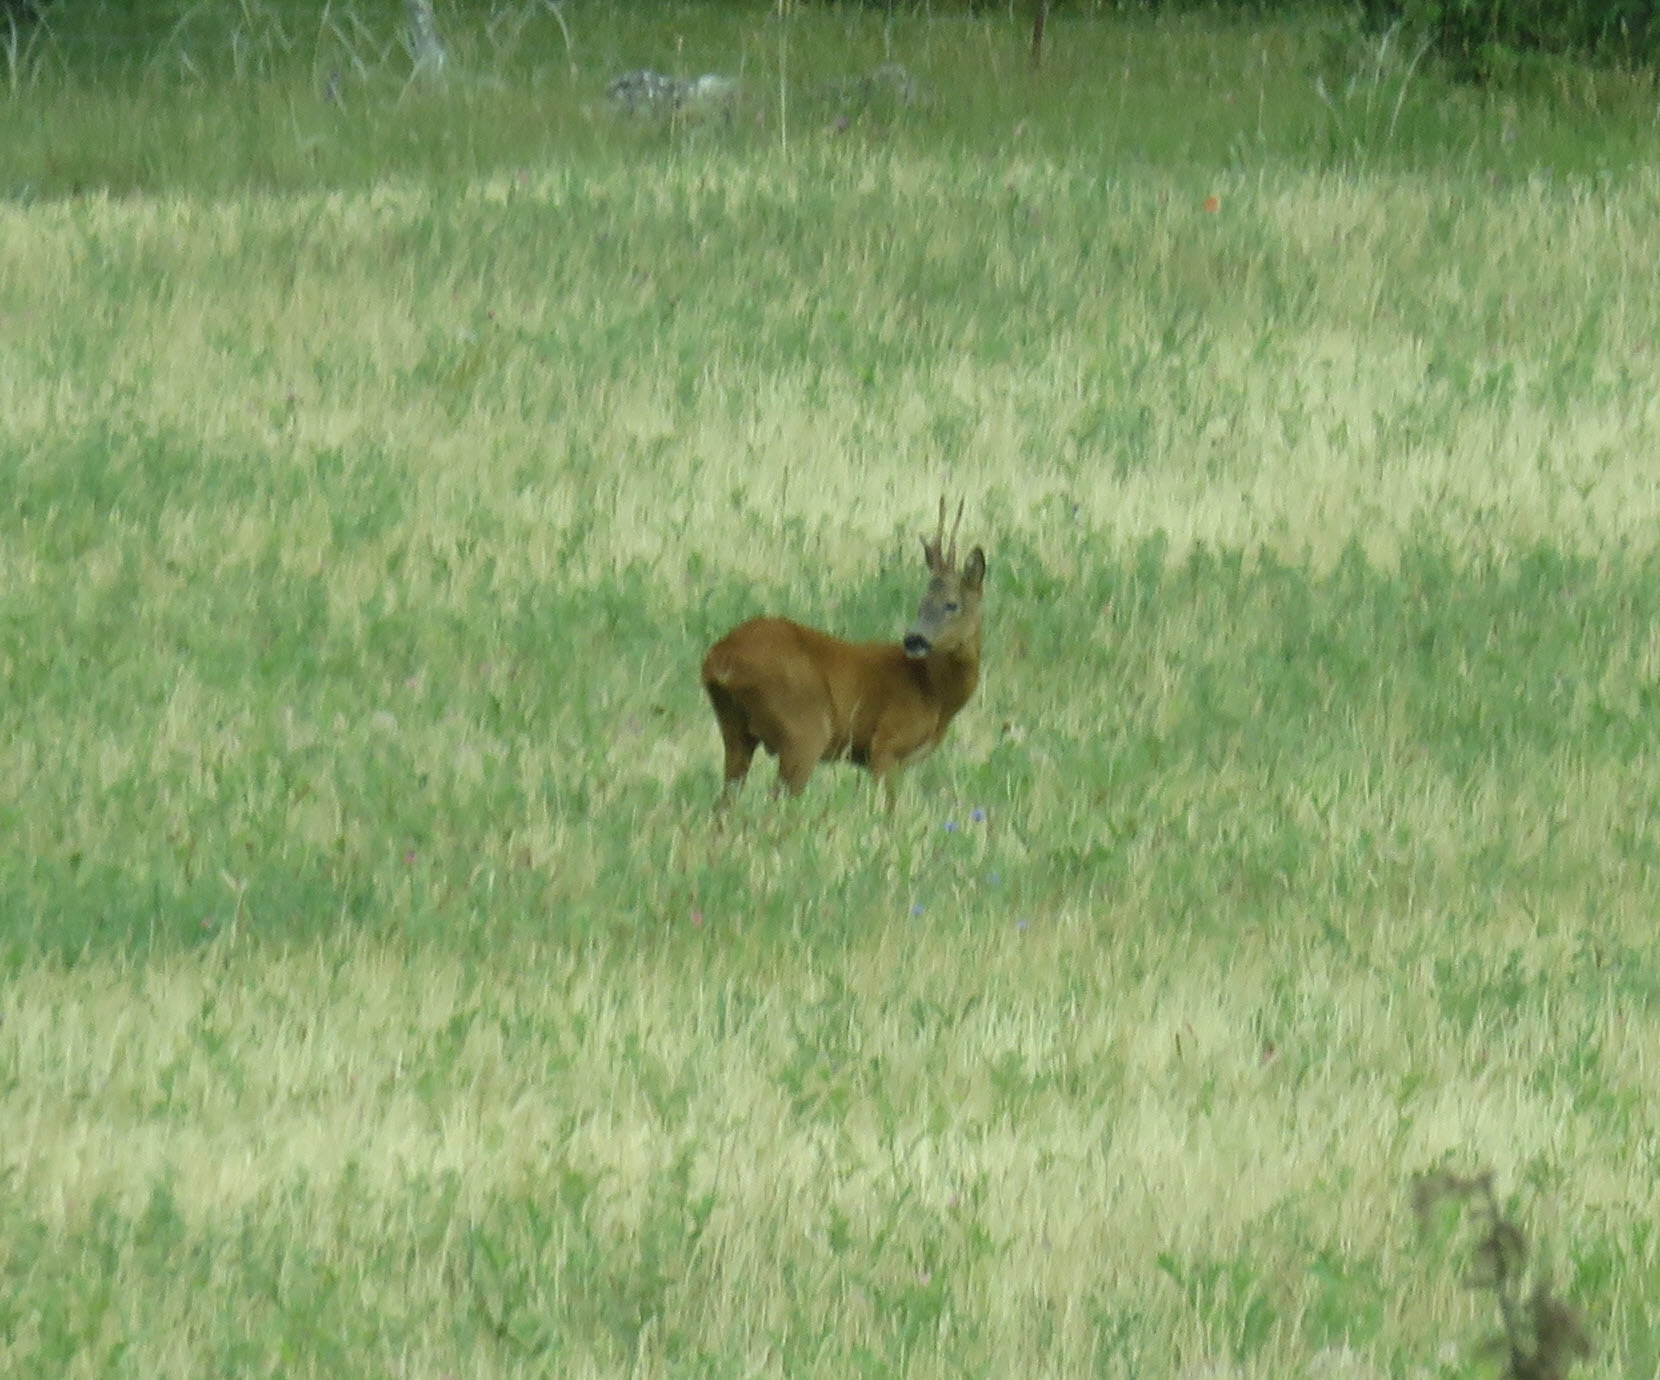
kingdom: Animalia
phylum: Chordata
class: Mammalia
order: Artiodactyla
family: Cervidae
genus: Capreolus
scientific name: Capreolus capreolus
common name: Western roe deer
